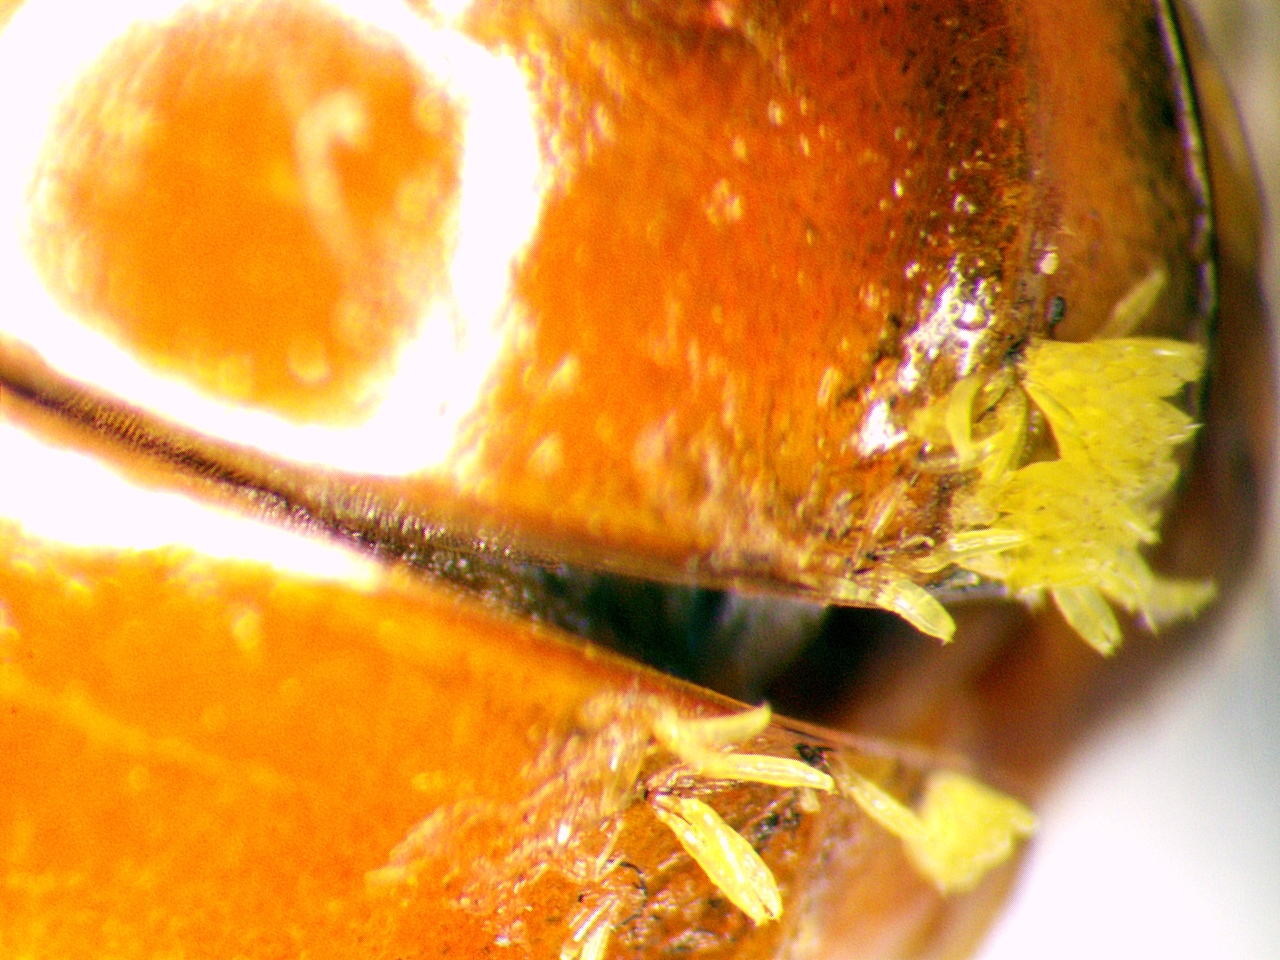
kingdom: Fungi
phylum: Ascomycota
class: Laboulbeniomycetes
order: Laboulbeniales
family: Laboulbeniaceae
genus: Hesperomyces
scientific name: Hesperomyces harmoniae
